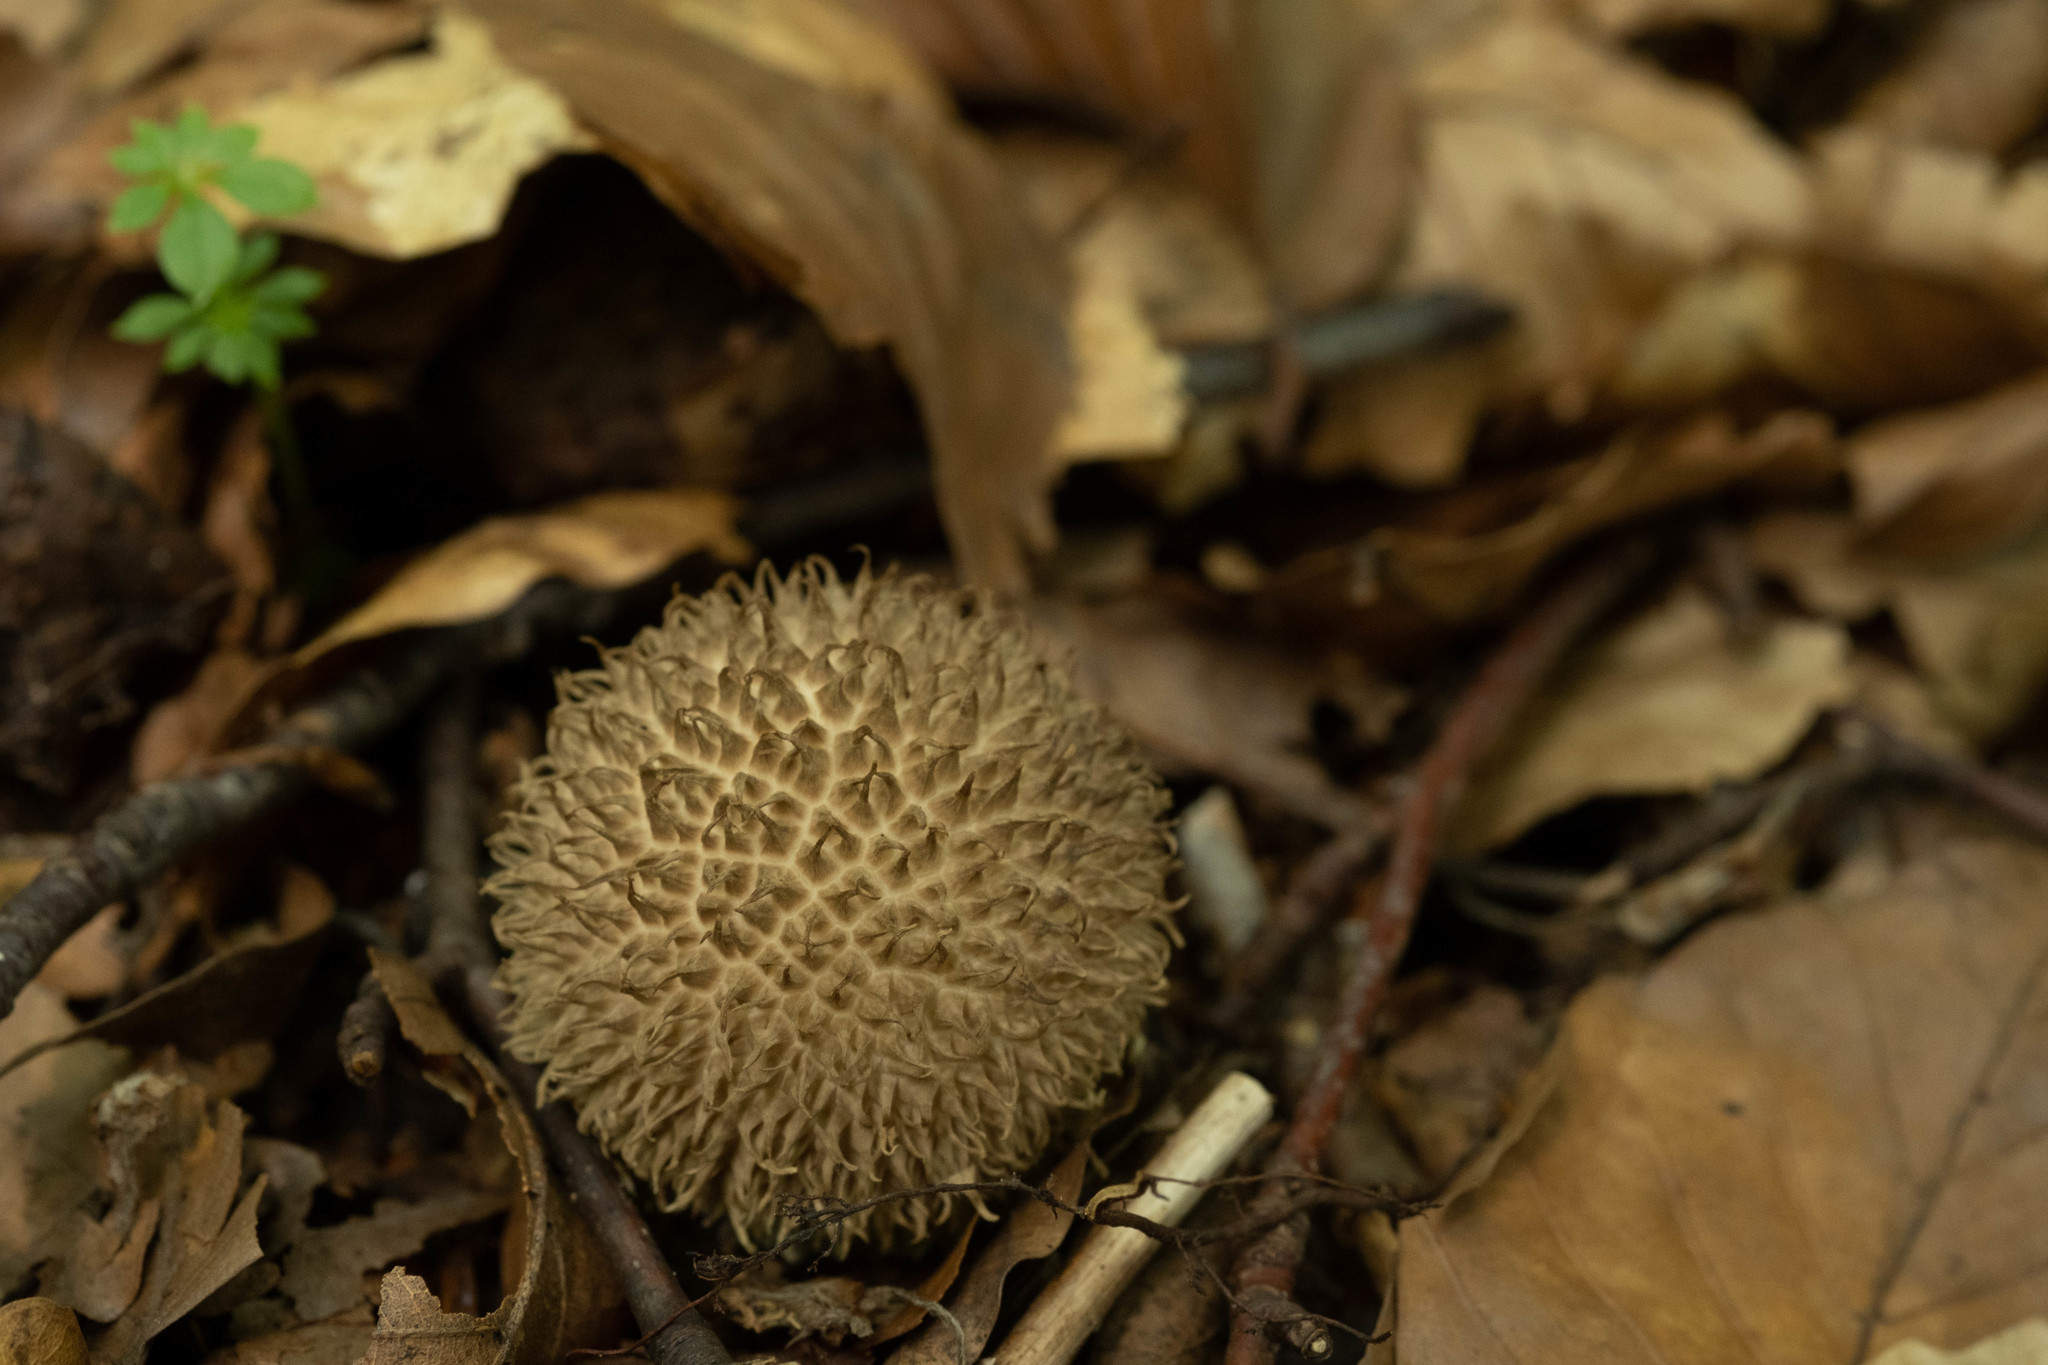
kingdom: Fungi
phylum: Basidiomycota
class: Agaricomycetes
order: Agaricales
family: Lycoperdaceae
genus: Lycoperdon
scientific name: Lycoperdon echinatum
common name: Hedgehog puffball
